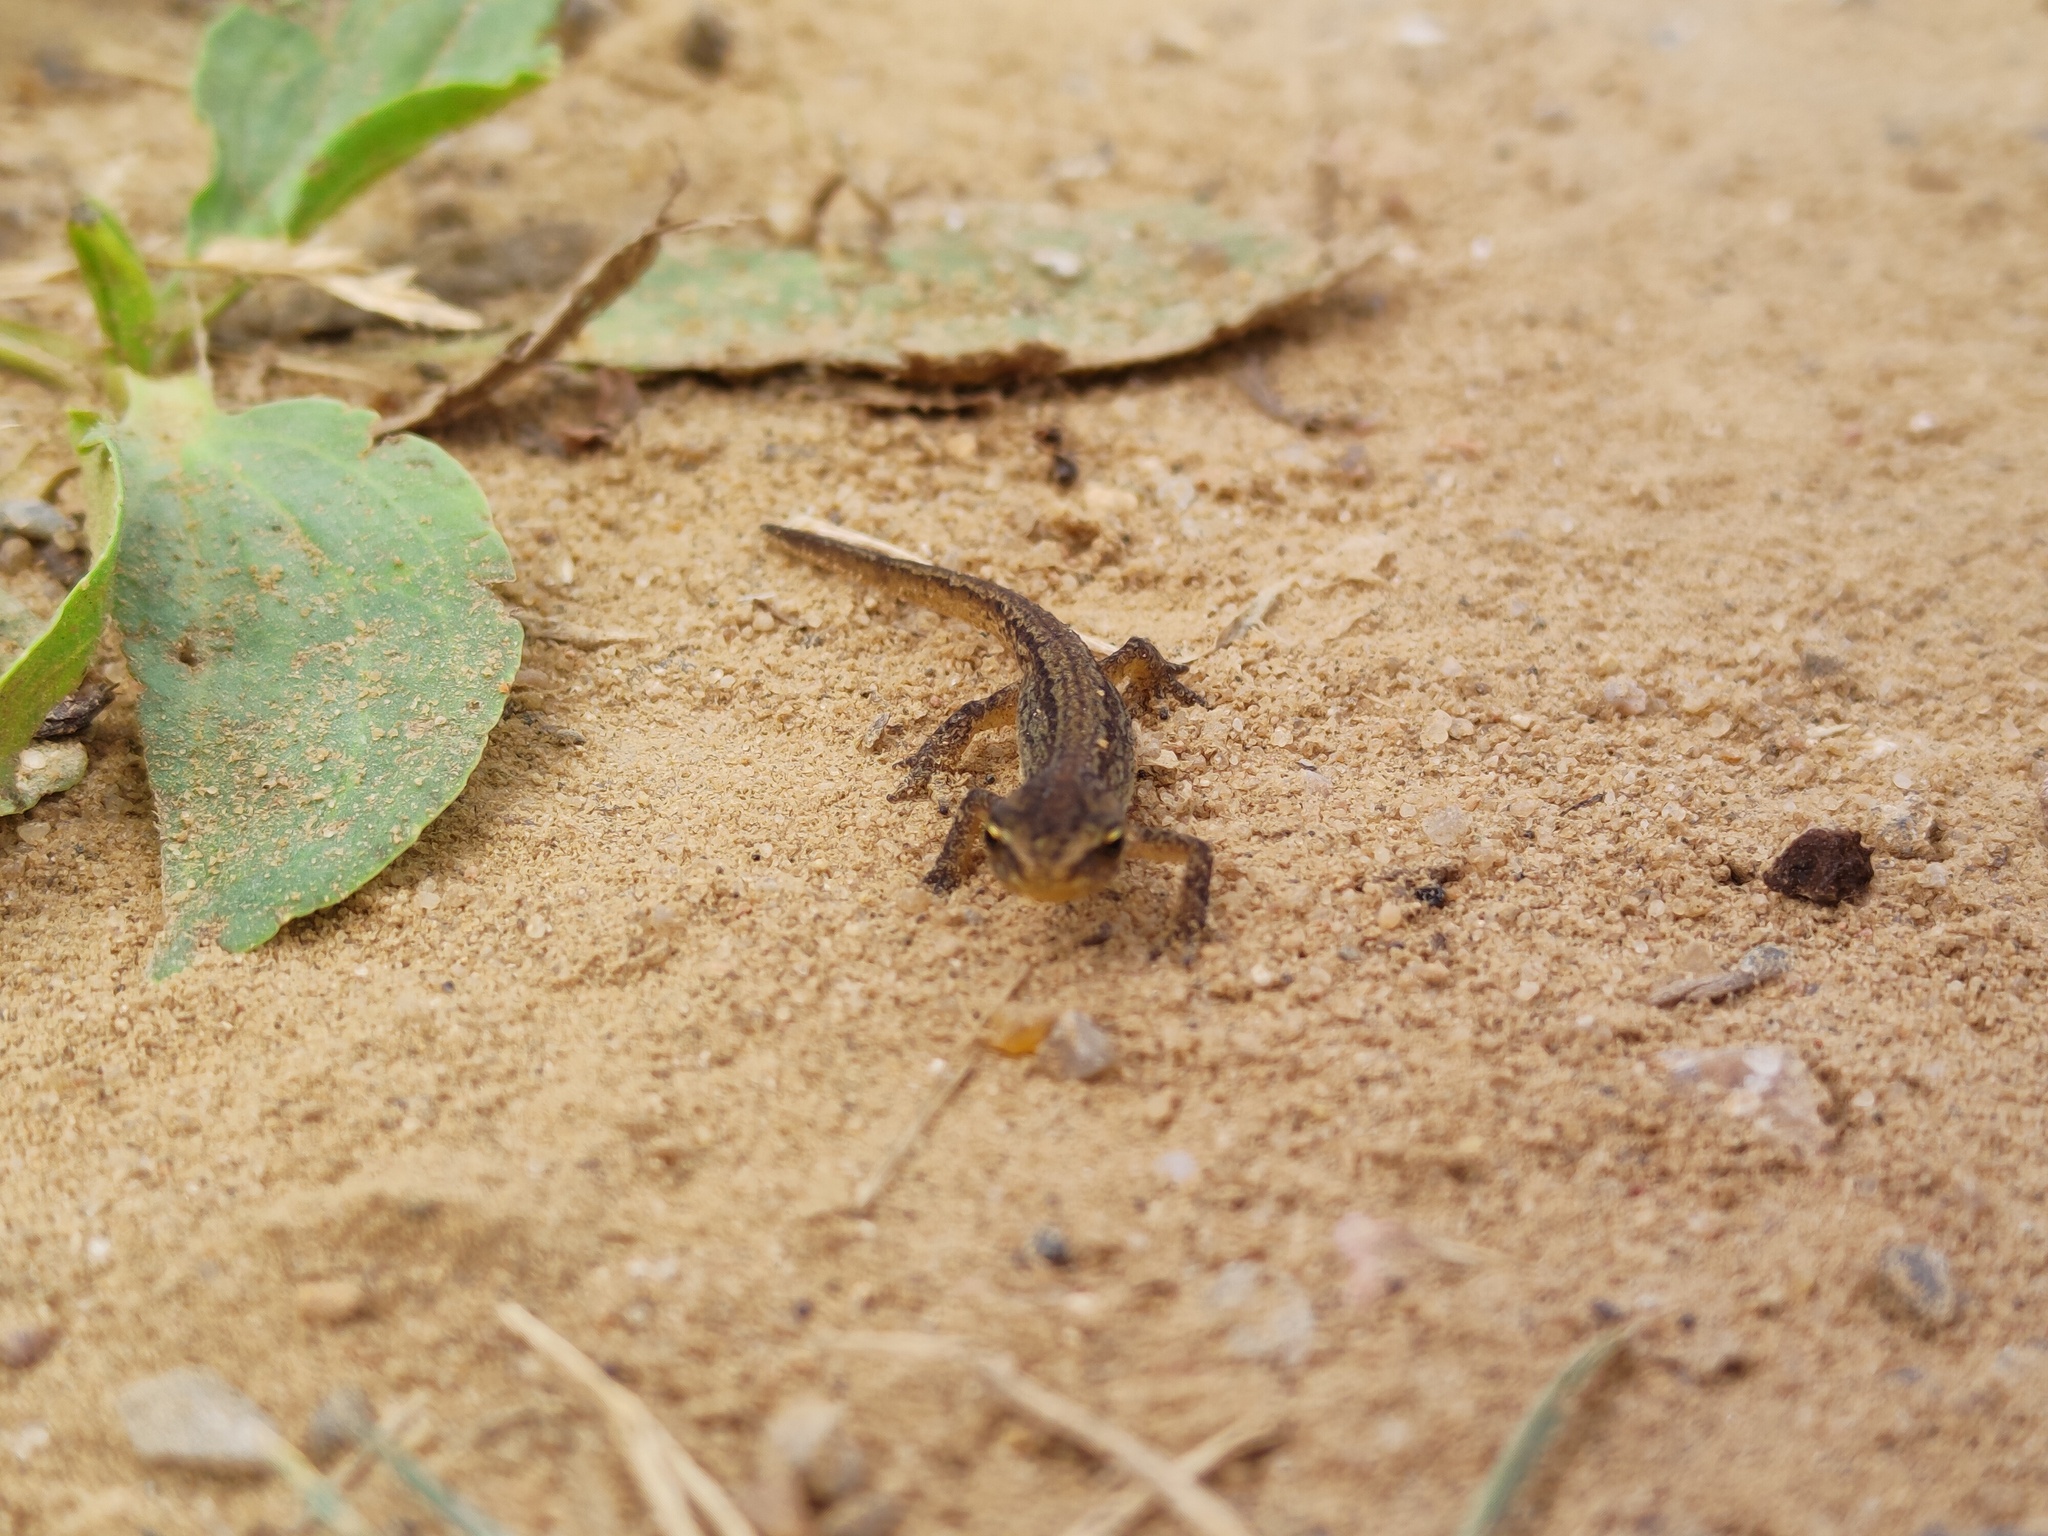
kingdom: Animalia
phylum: Chordata
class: Amphibia
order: Caudata
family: Salamandridae
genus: Lissotriton
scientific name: Lissotriton vulgaris
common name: Smooth newt
